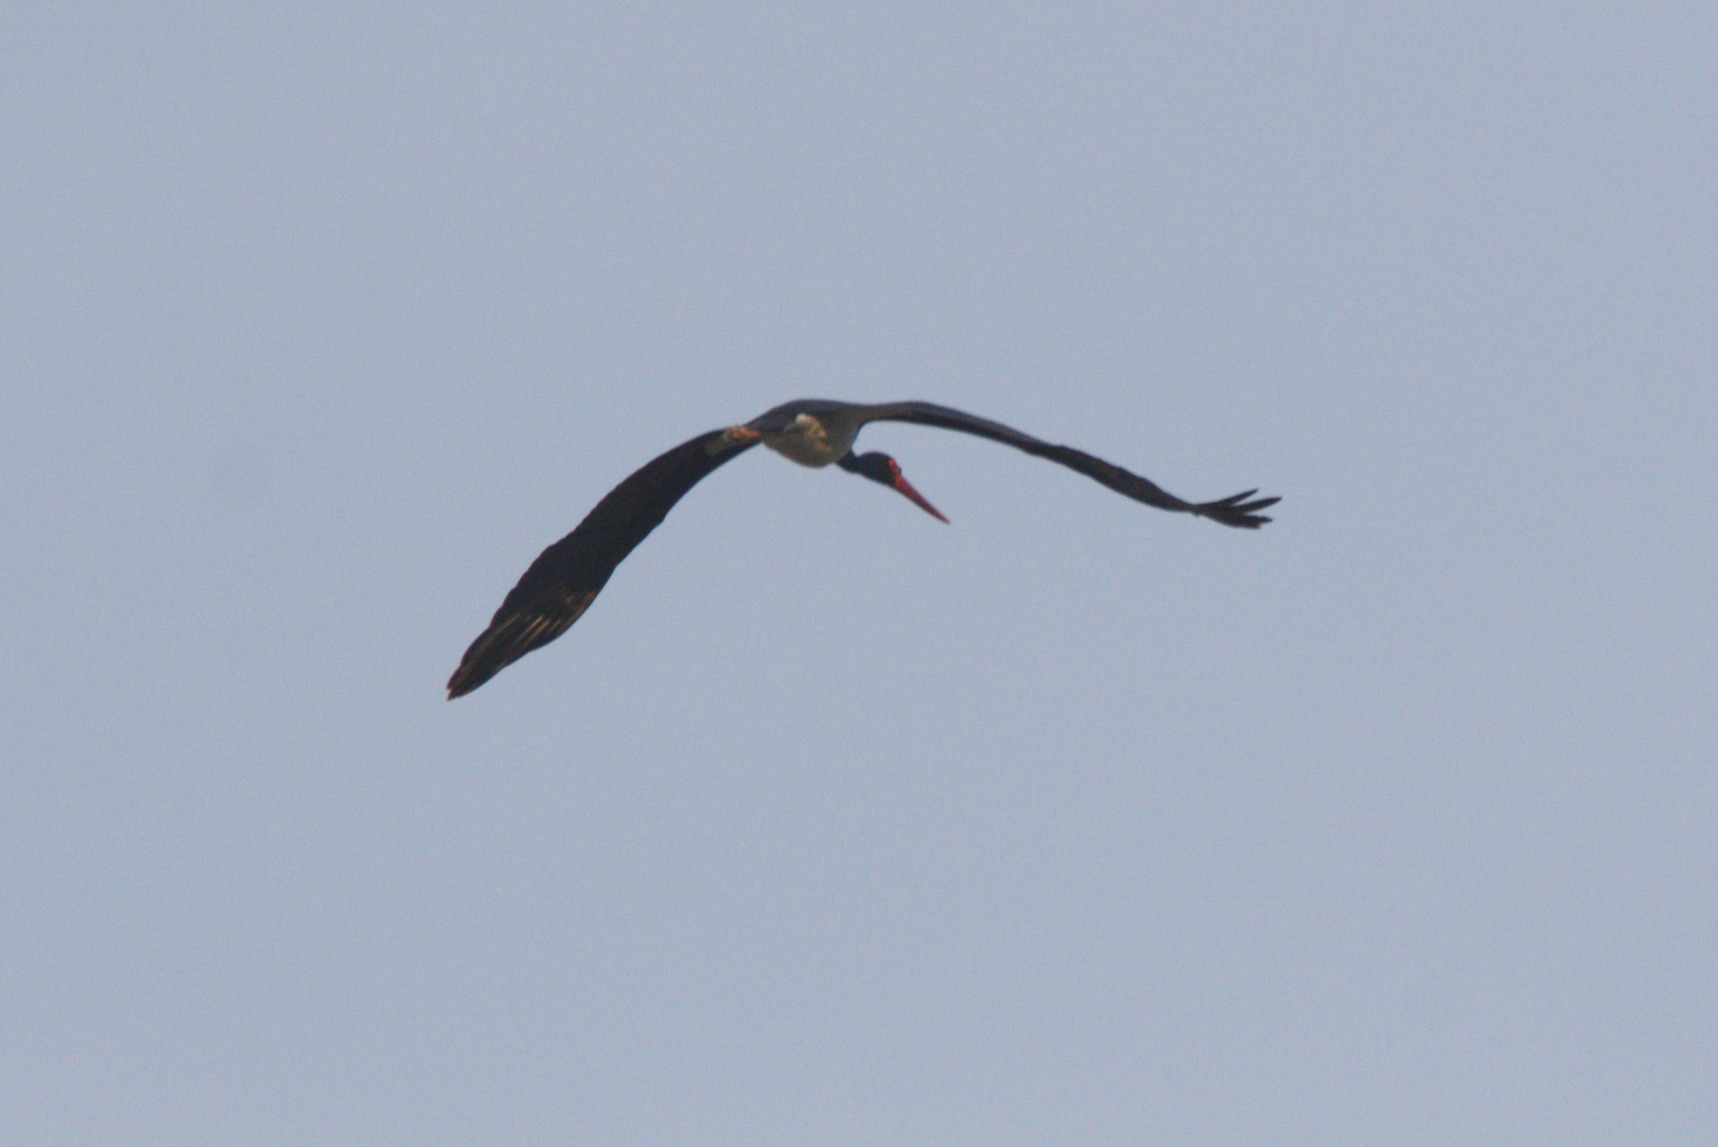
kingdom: Animalia
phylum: Chordata
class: Aves
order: Ciconiiformes
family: Ciconiidae
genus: Ciconia
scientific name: Ciconia nigra
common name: Black stork
